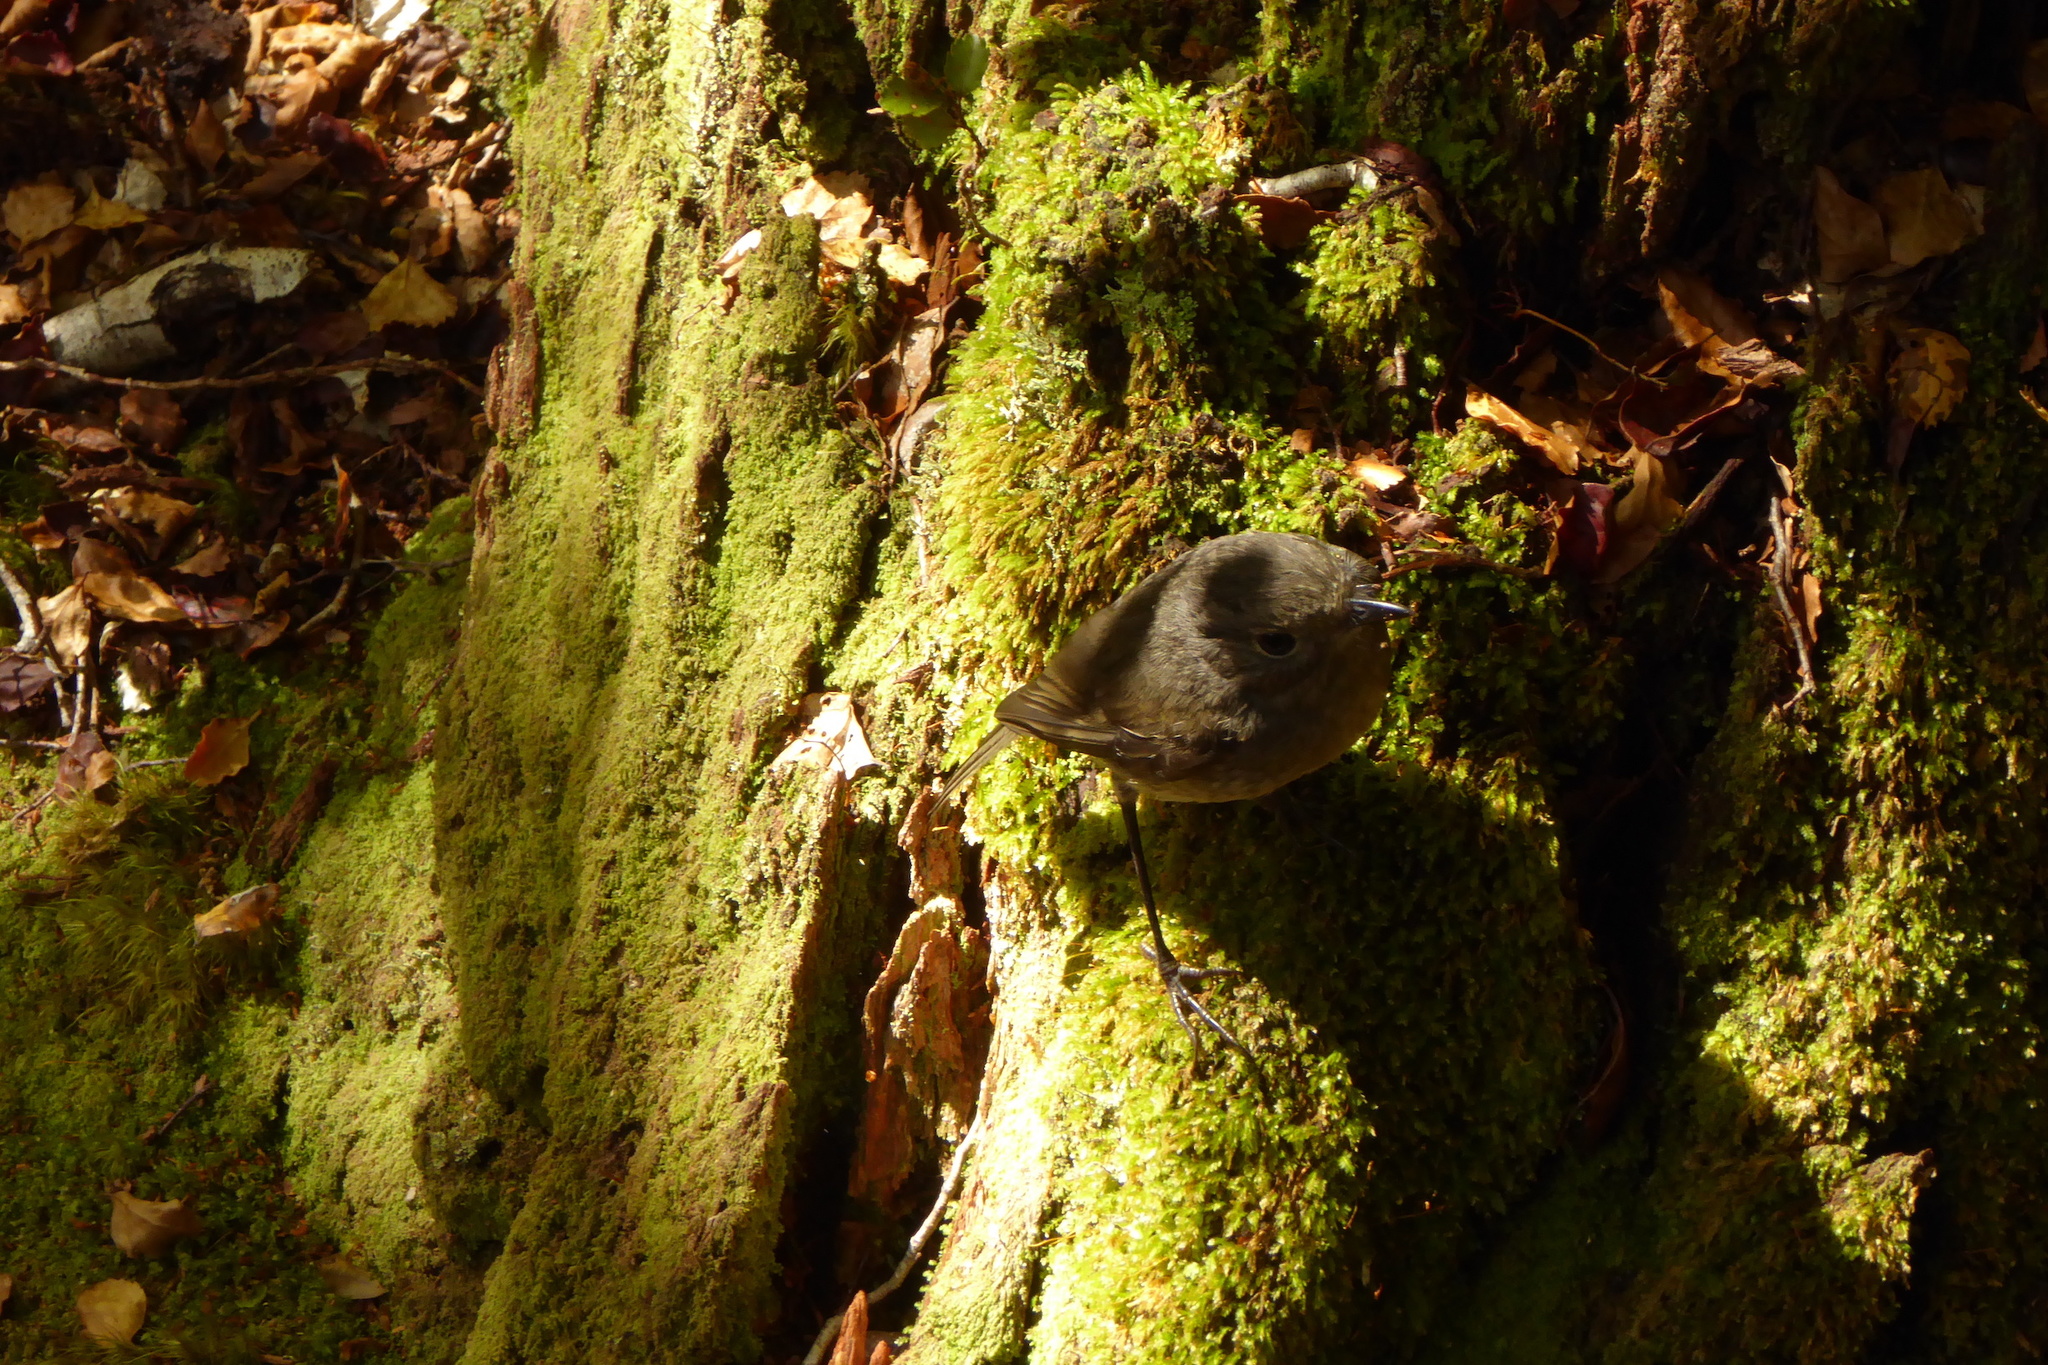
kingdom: Animalia
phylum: Chordata
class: Aves
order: Passeriformes
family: Petroicidae
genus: Petroica
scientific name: Petroica australis
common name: New zealand robin
